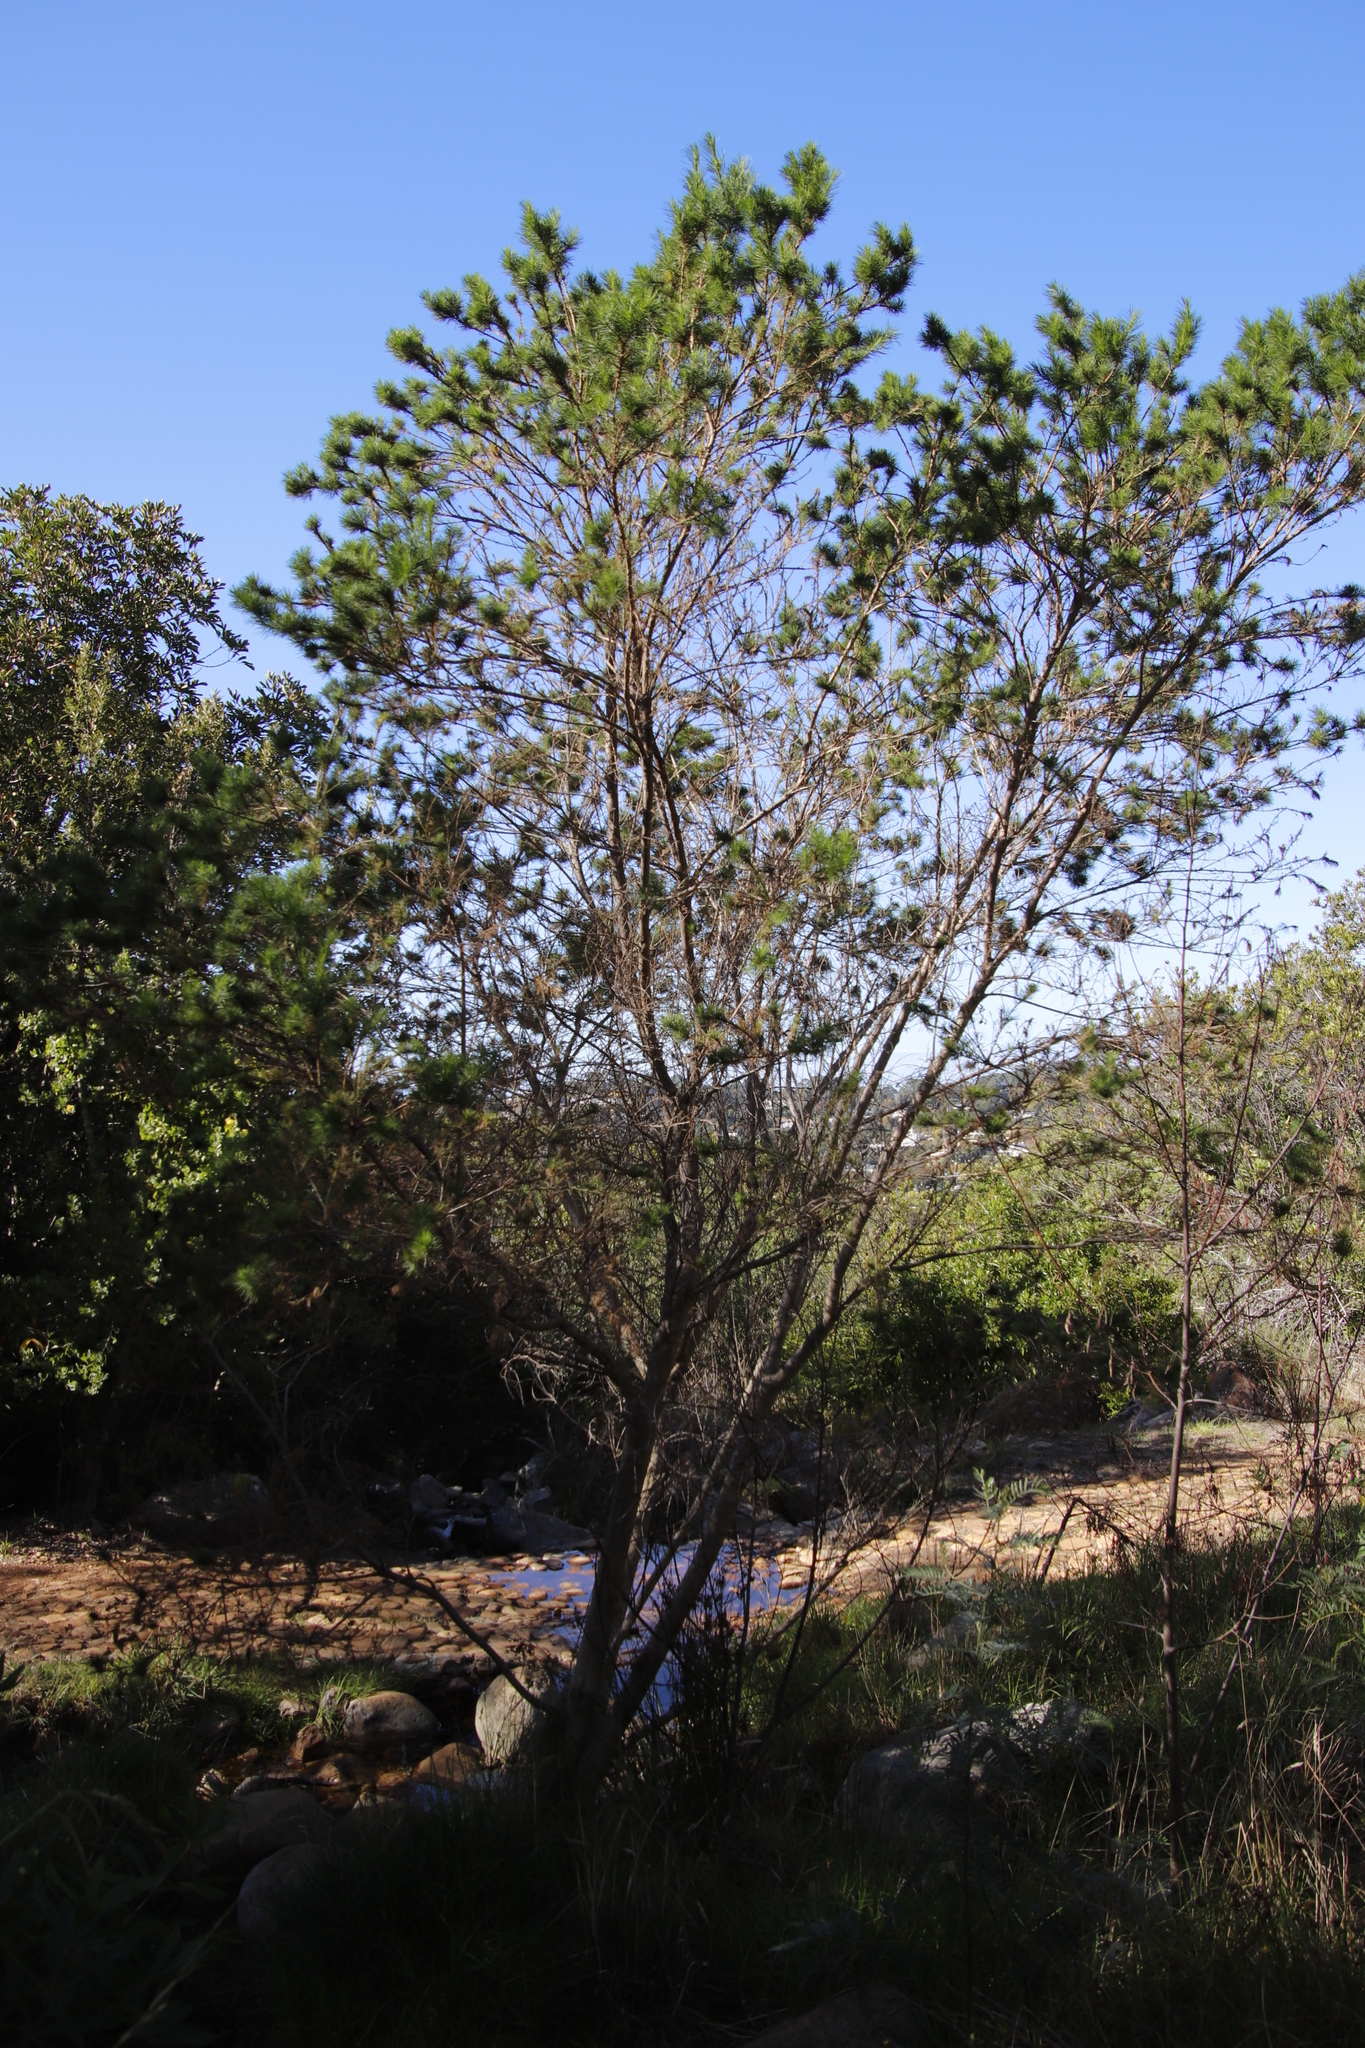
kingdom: Plantae
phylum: Tracheophyta
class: Magnoliopsida
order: Fabales
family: Fabaceae
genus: Psoralea
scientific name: Psoralea pinnata
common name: African scurfpea
